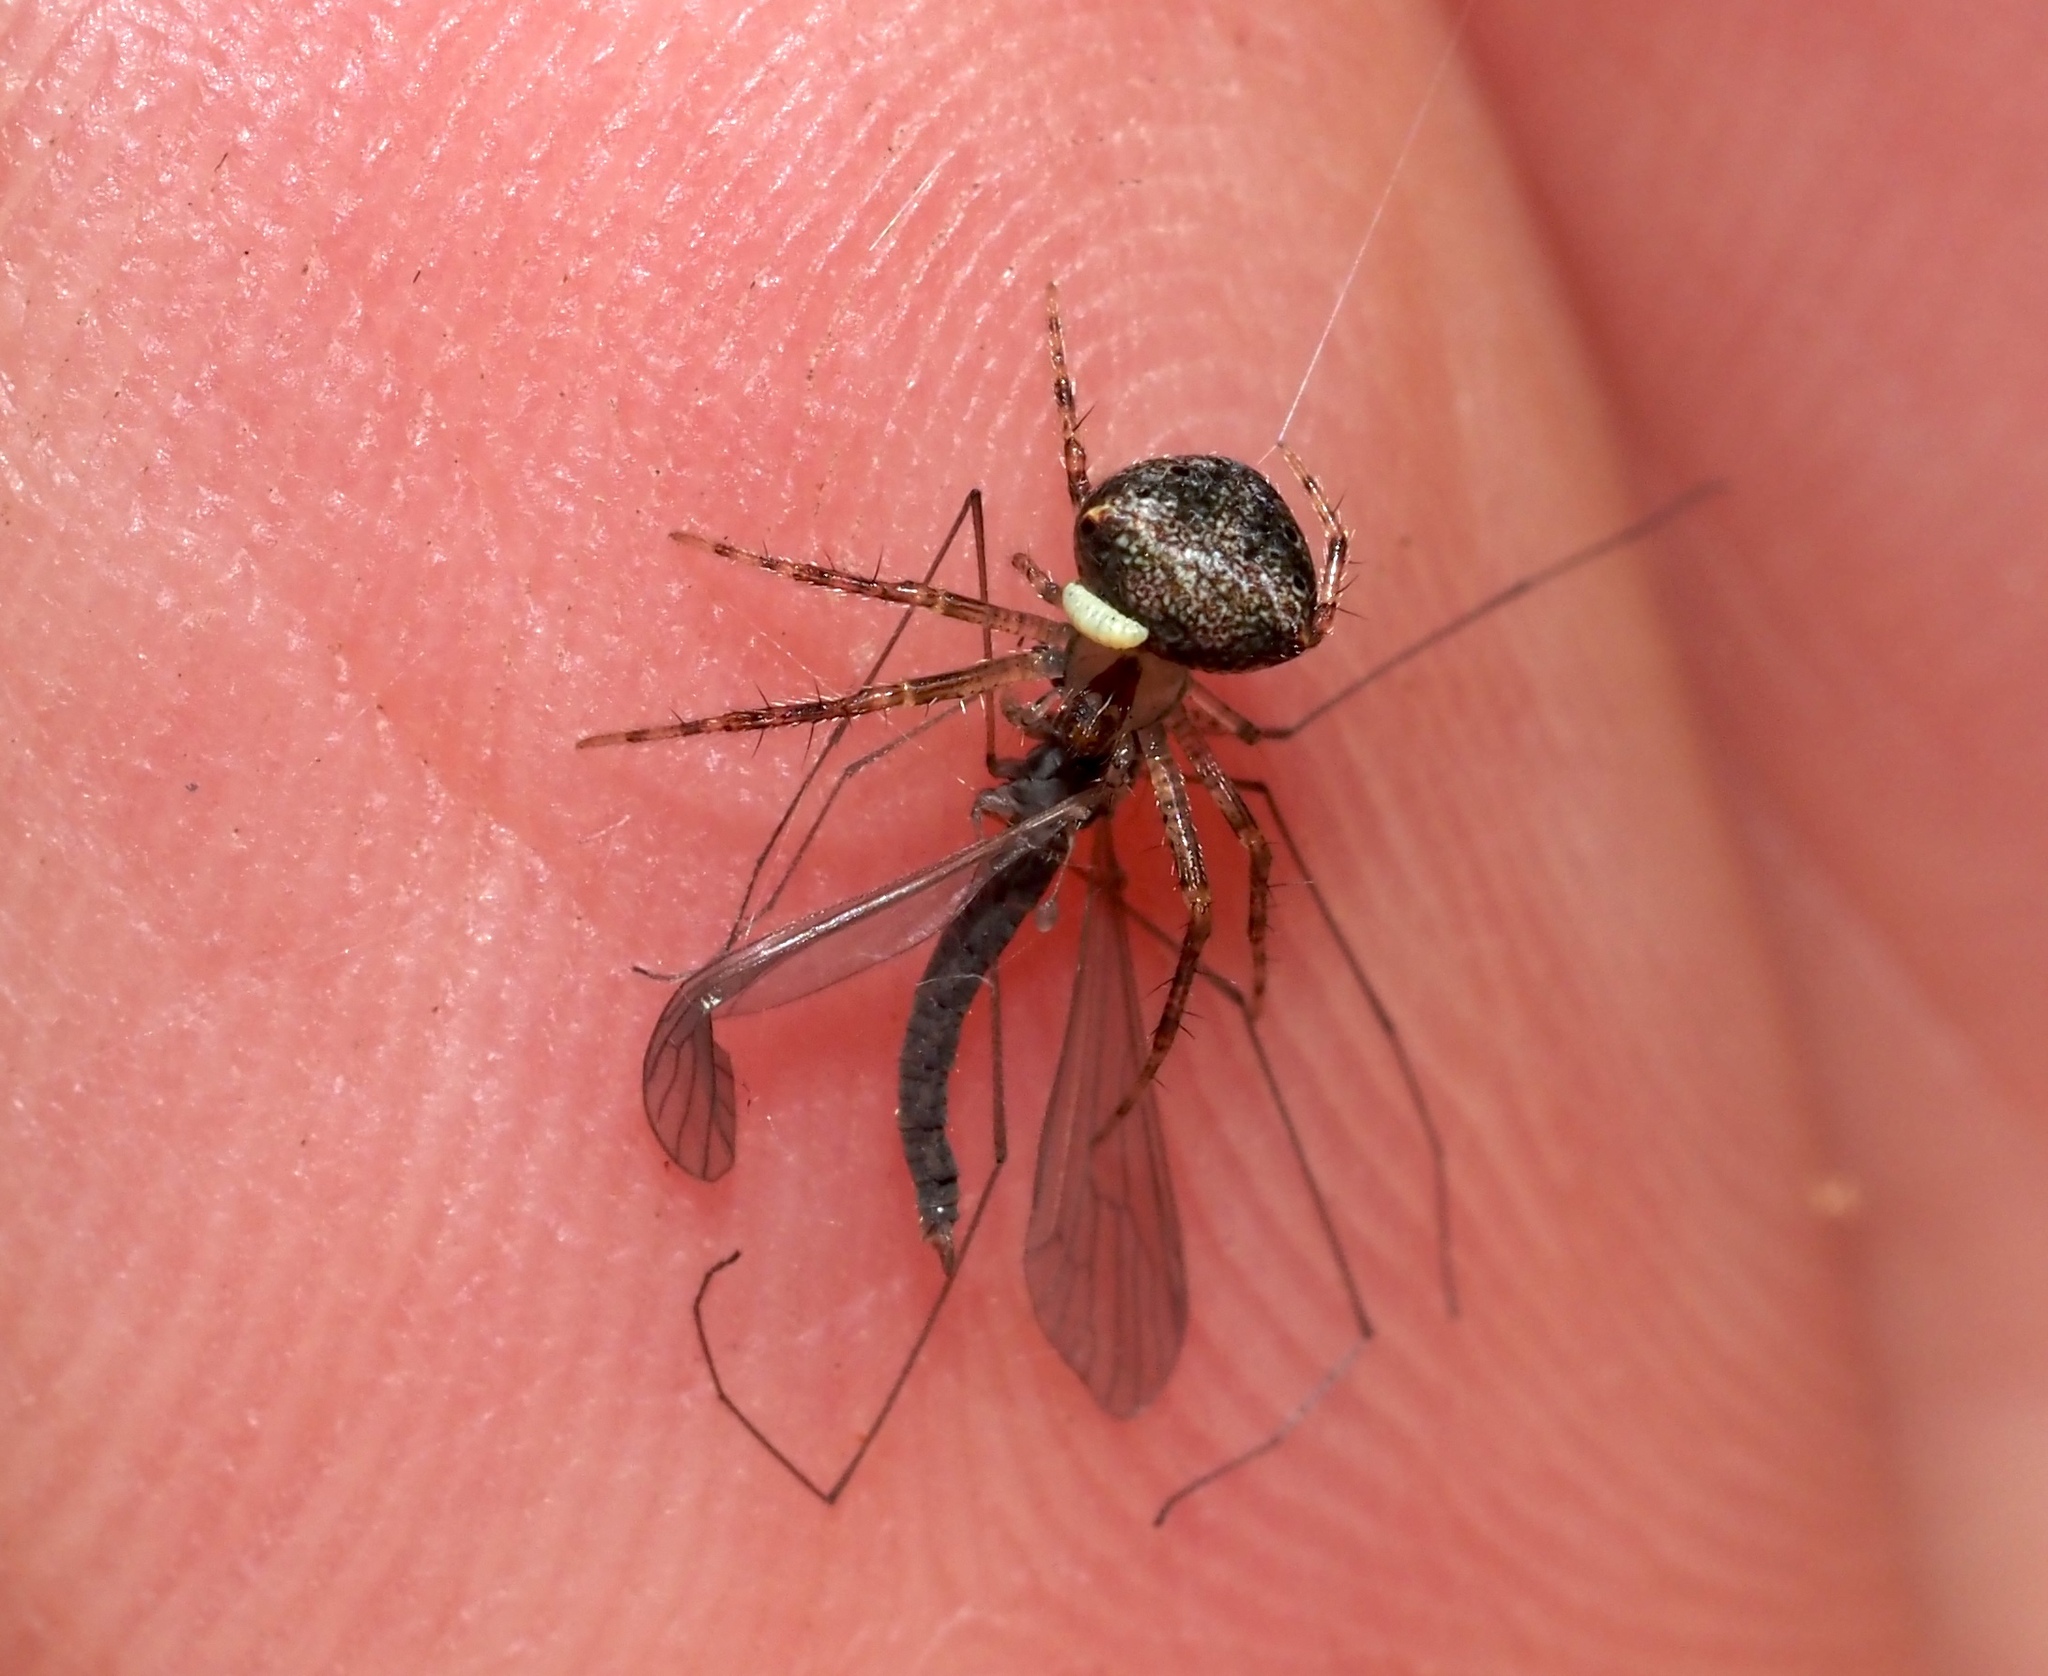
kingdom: Animalia
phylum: Arthropoda
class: Arachnida
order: Araneae
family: Araneidae
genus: Araneus
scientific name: Araneus miniatus
